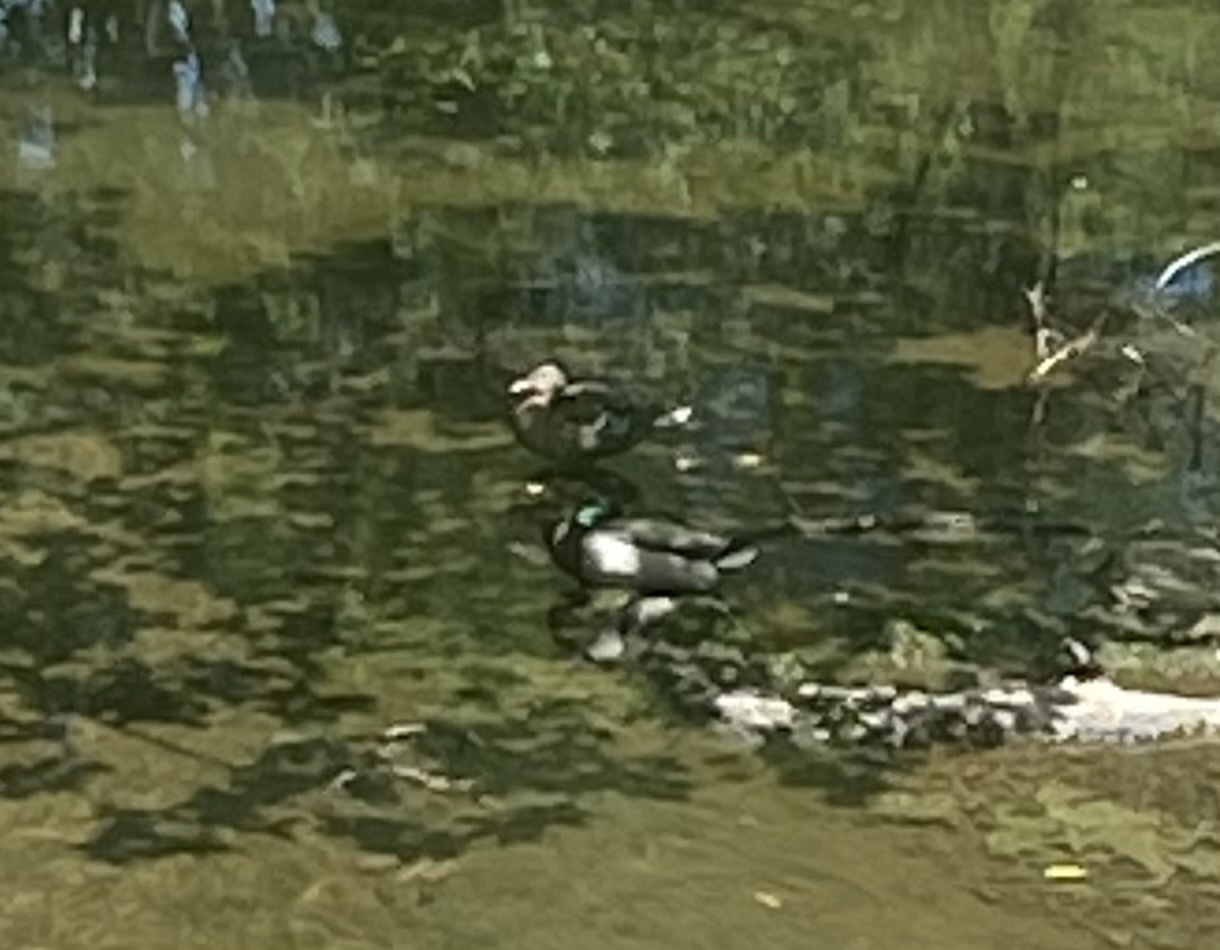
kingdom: Animalia
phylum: Chordata
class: Aves
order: Anseriformes
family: Anatidae
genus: Anas
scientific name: Anas platyrhynchos
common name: Mallard
